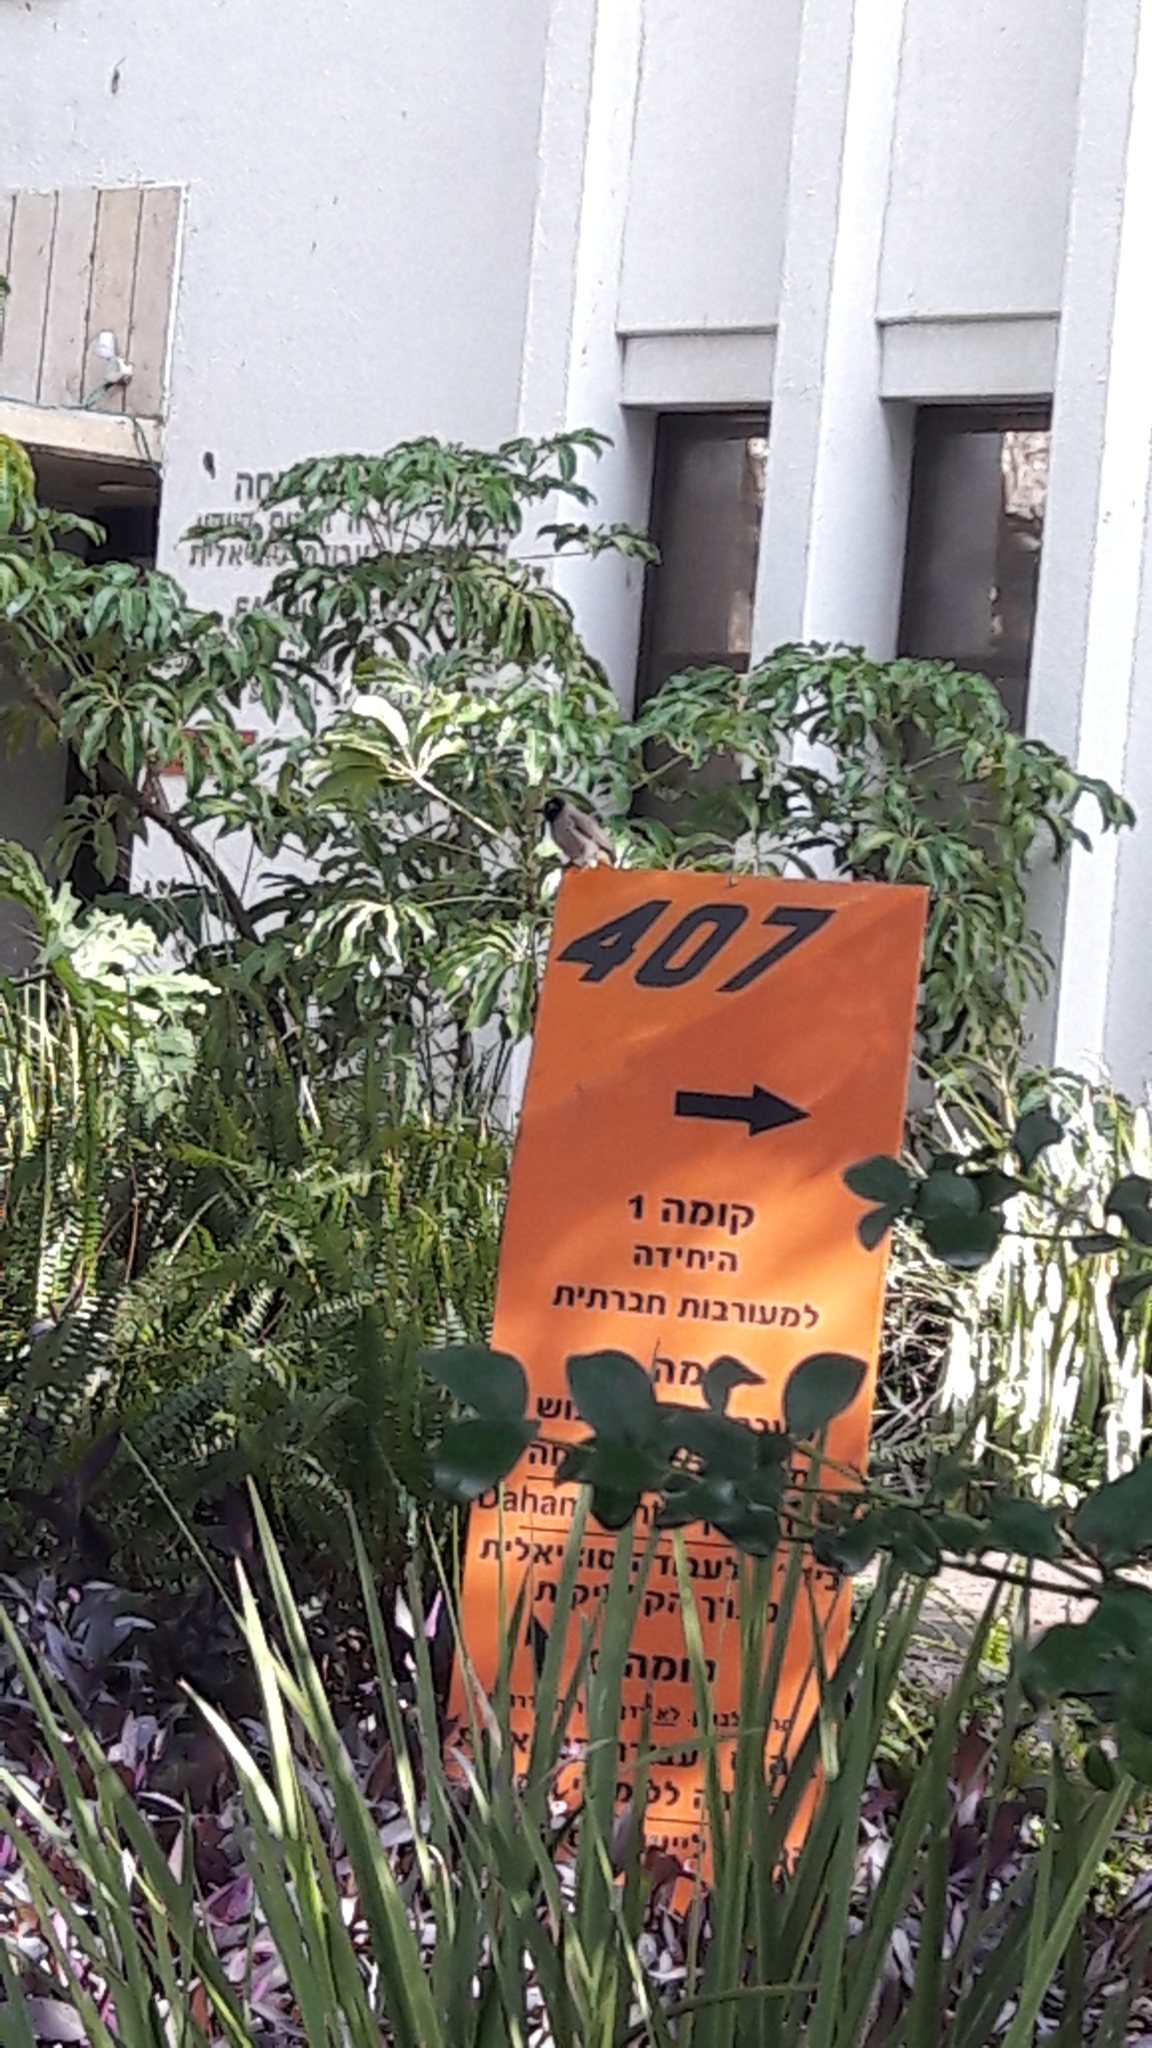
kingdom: Animalia
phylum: Chordata
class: Aves
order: Passeriformes
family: Pycnonotidae
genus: Pycnonotus
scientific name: Pycnonotus xanthopygos
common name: White-spectacled bulbul
